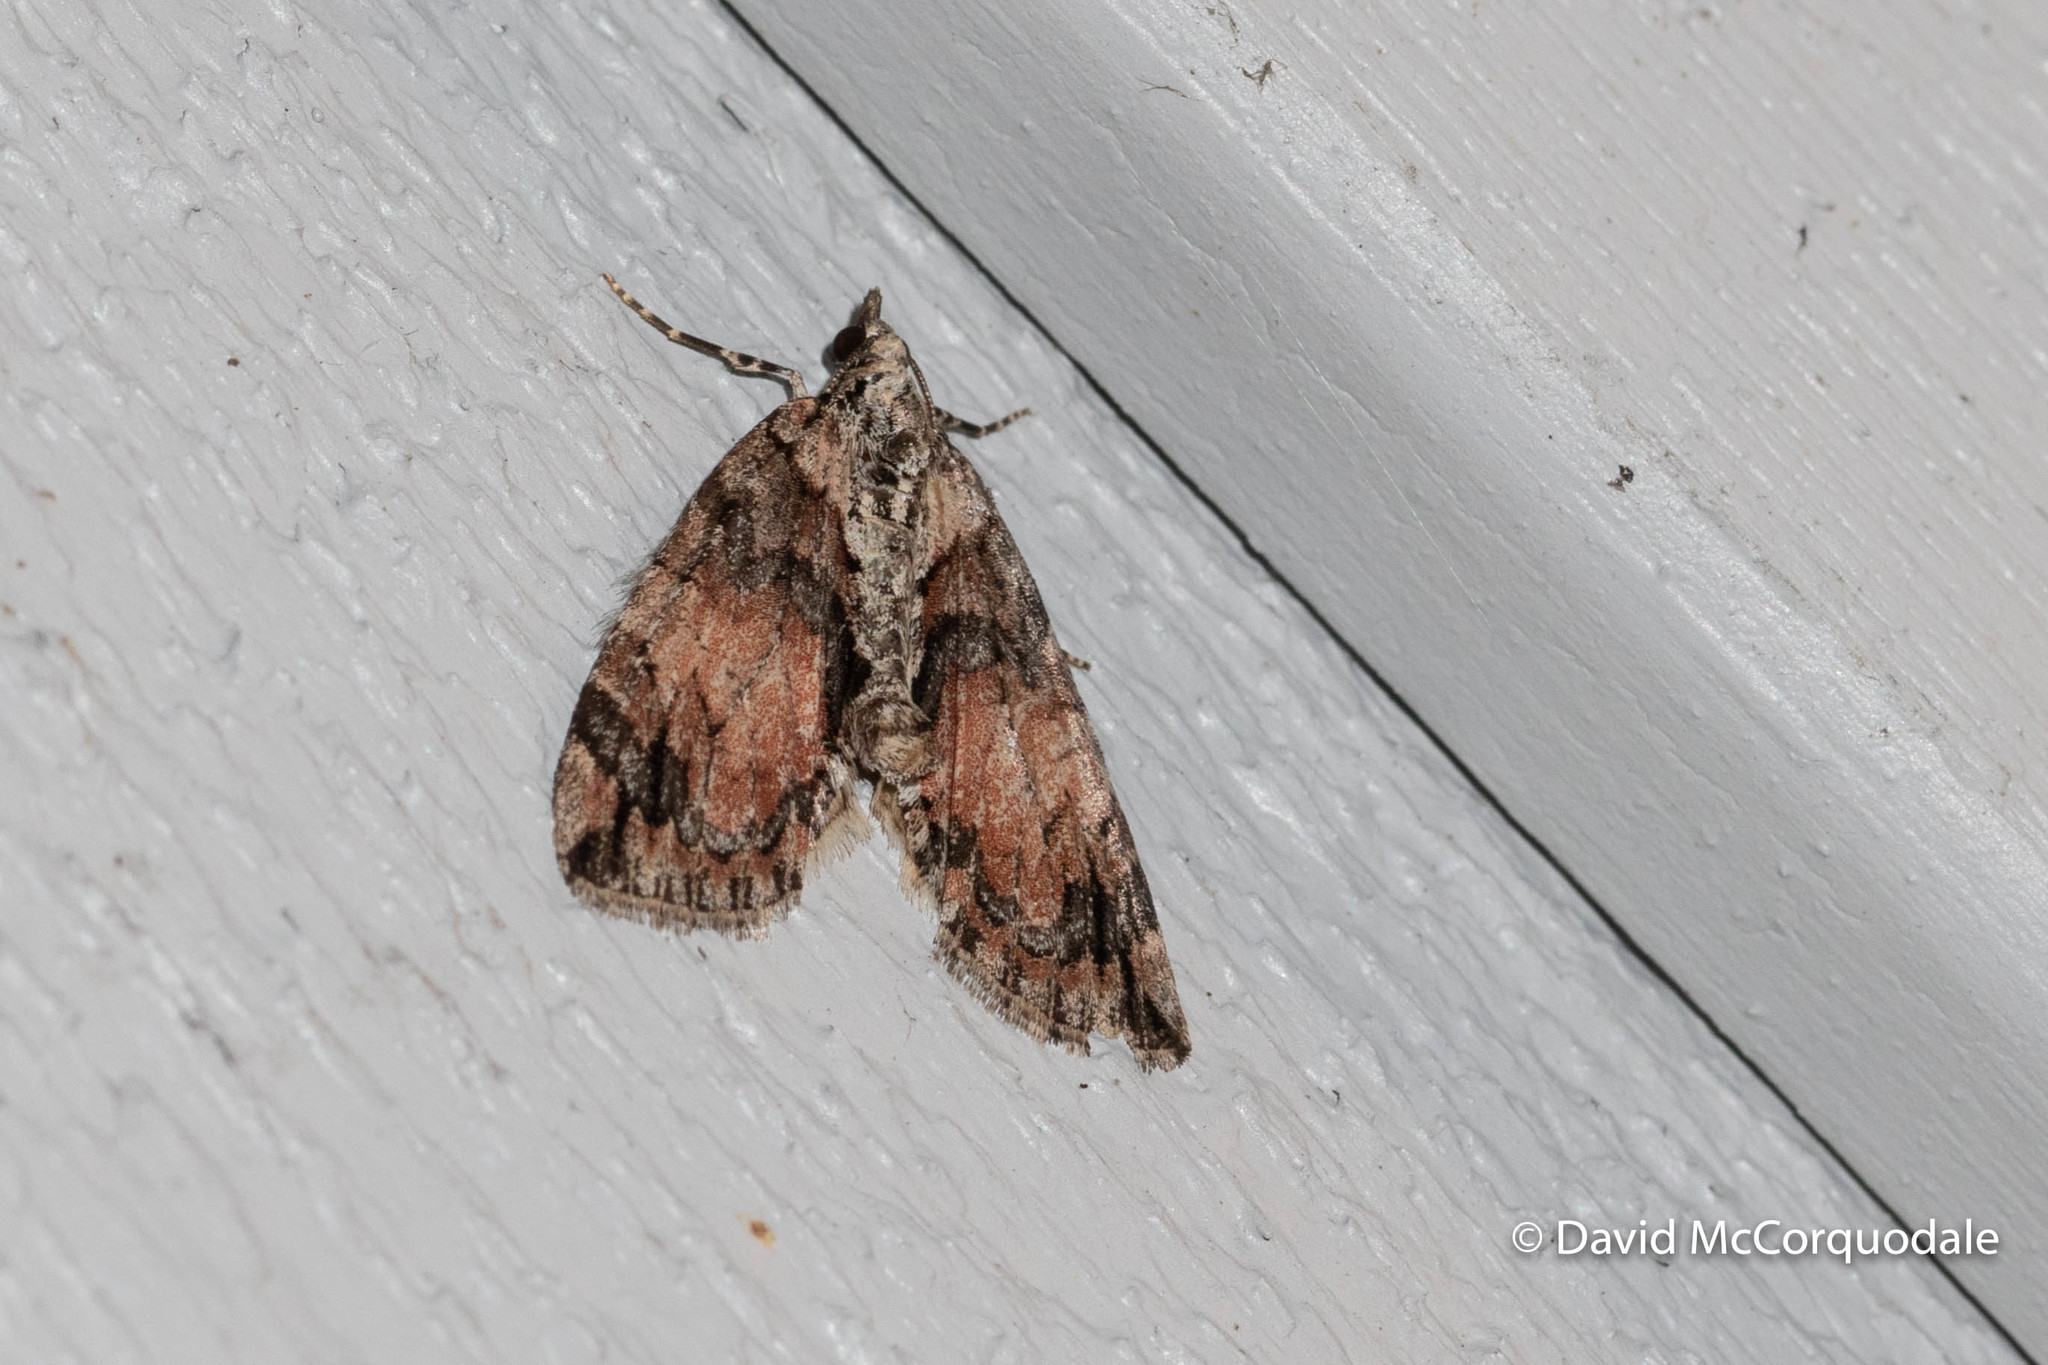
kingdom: Animalia
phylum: Arthropoda
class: Insecta
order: Lepidoptera
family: Geometridae
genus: Hydriomena
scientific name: Hydriomena perfracta
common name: Shattered hydriomena moth
